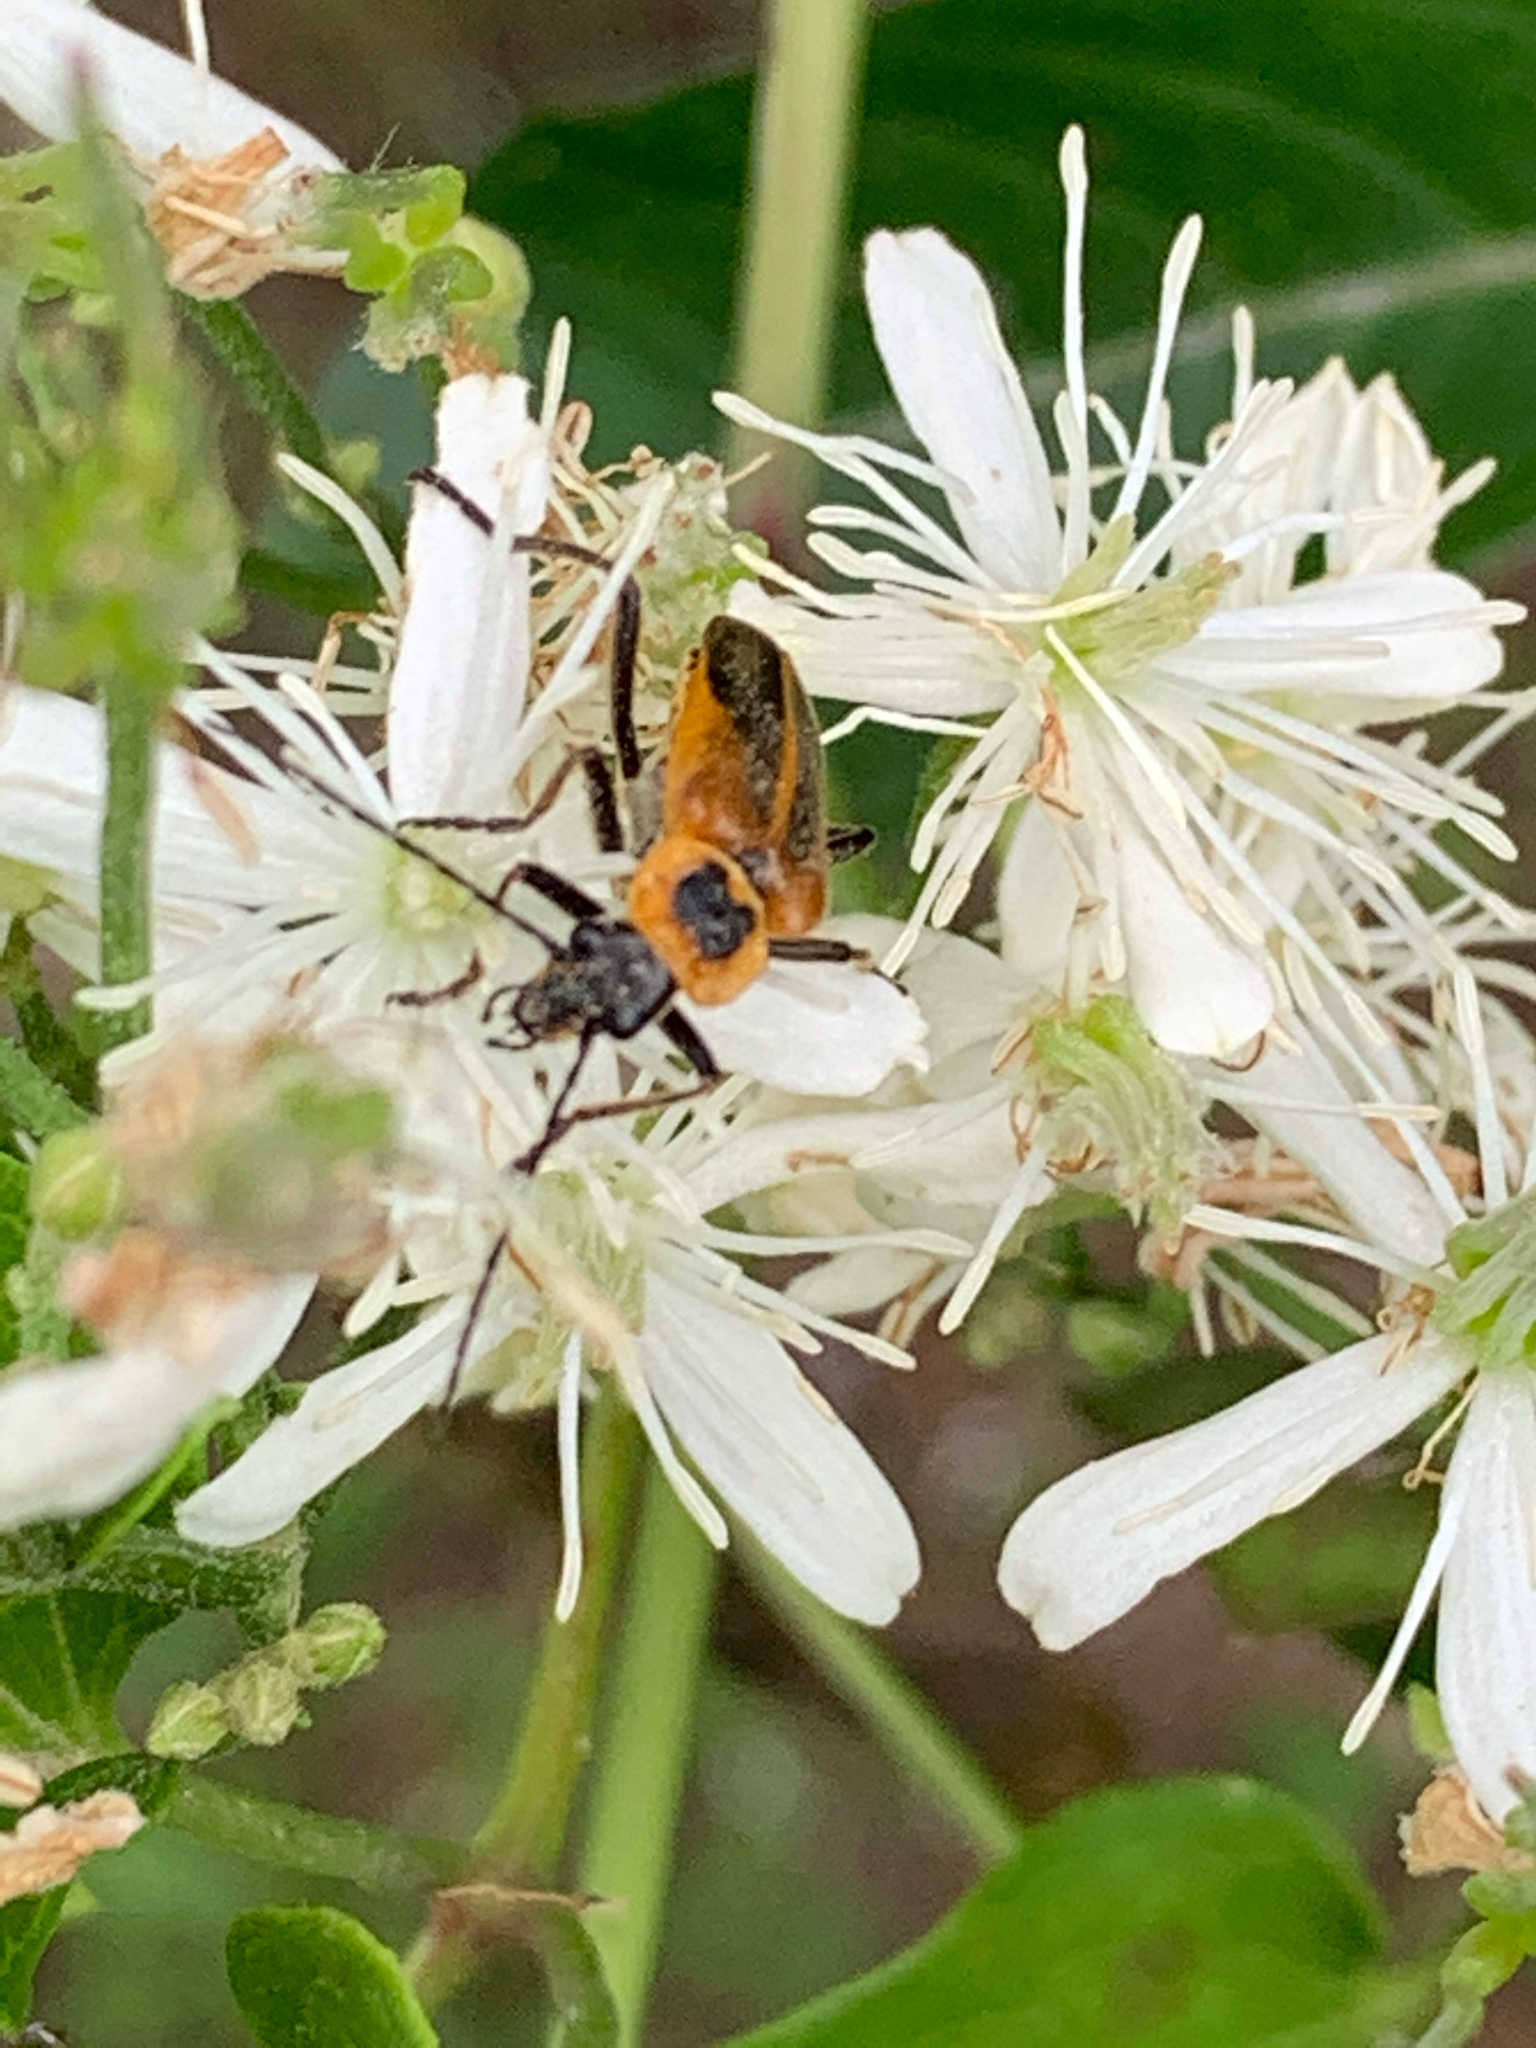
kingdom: Animalia
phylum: Arthropoda
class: Insecta
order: Coleoptera
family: Cantharidae
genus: Chauliognathus
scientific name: Chauliognathus pensylvanicus
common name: Goldenrod soldier beetle
